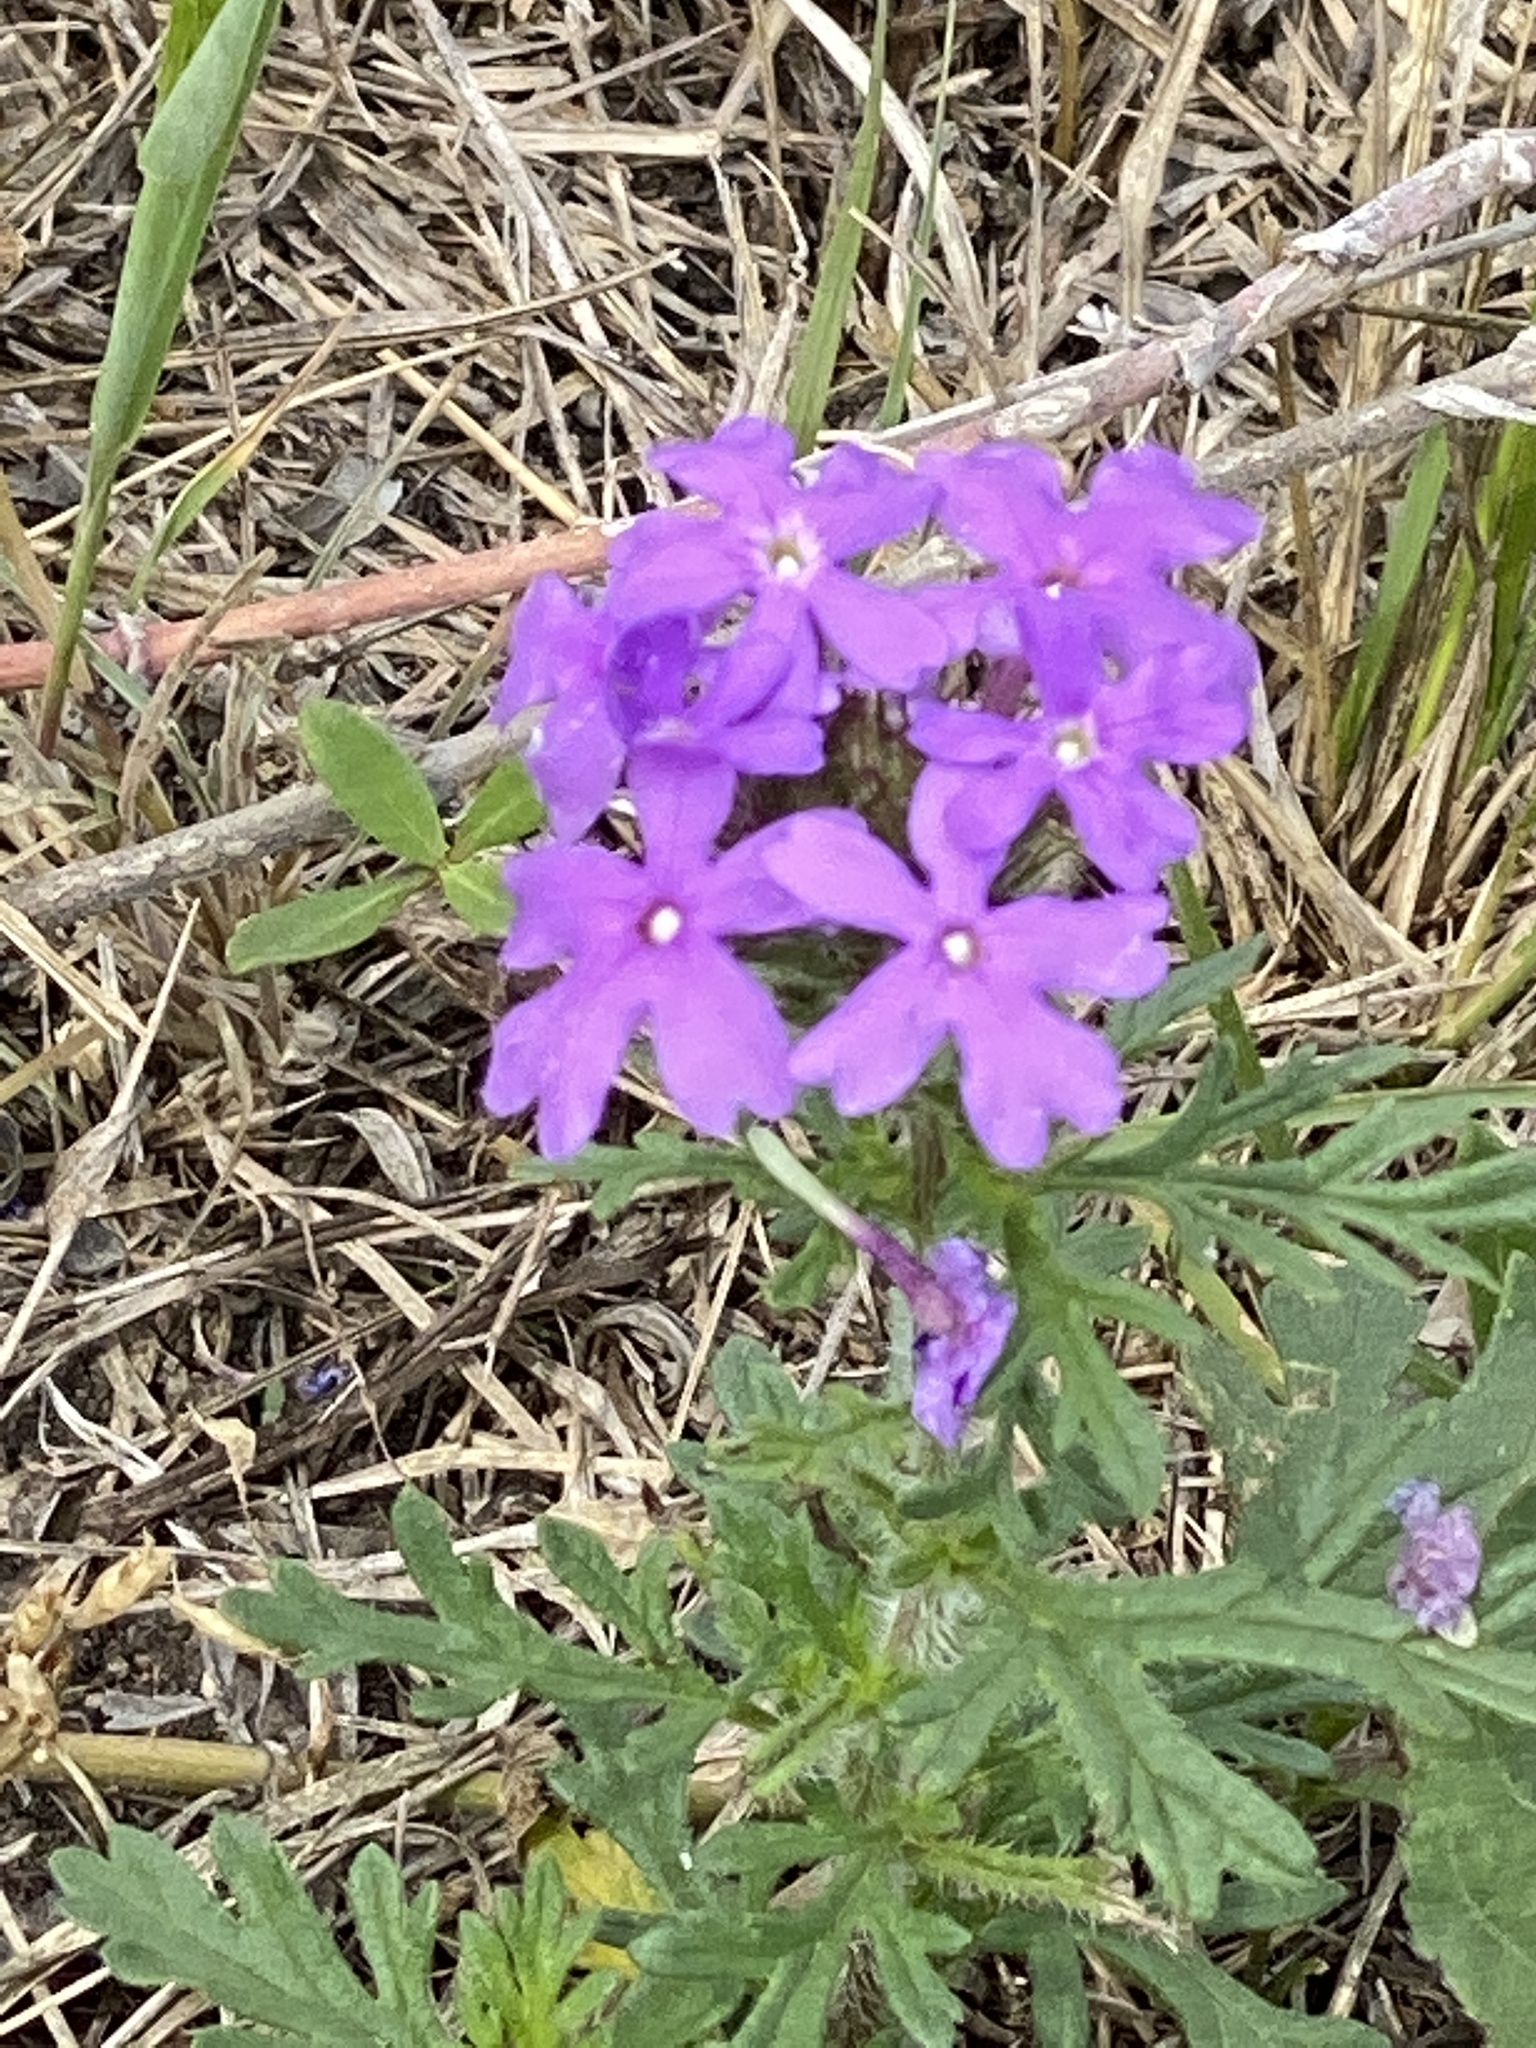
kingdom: Plantae
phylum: Tracheophyta
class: Magnoliopsida
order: Lamiales
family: Verbenaceae
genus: Verbena
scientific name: Verbena bipinnatifida
